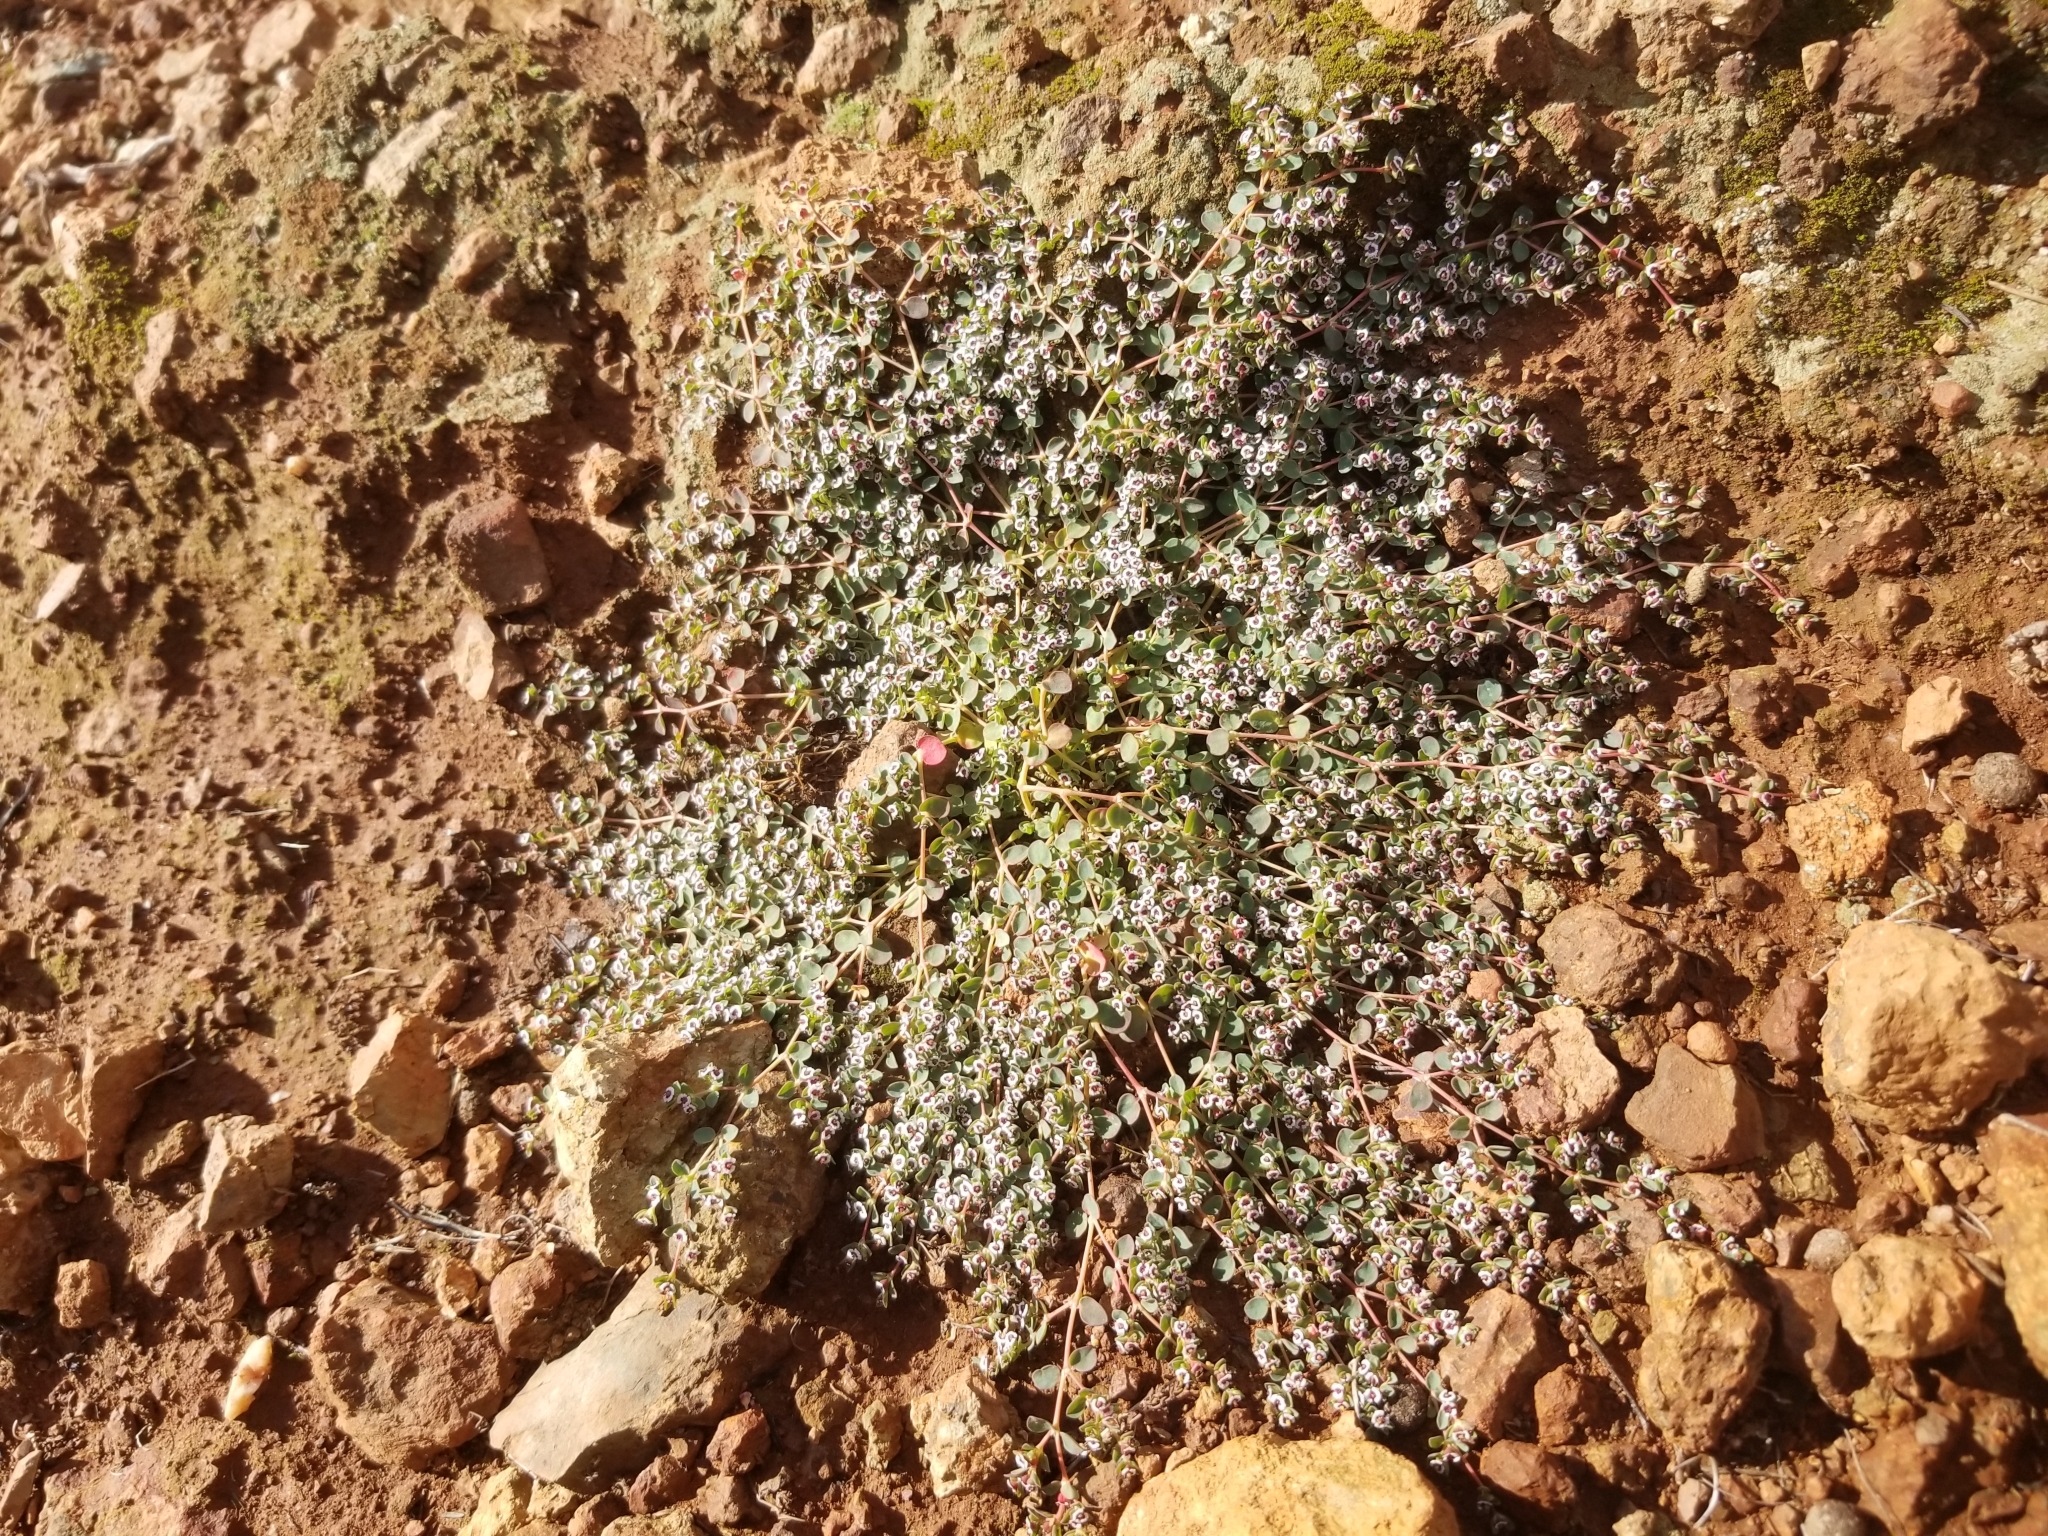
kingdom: Plantae
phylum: Tracheophyta
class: Magnoliopsida
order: Malpighiales
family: Euphorbiaceae
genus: Euphorbia
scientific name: Euphorbia polycarpa
